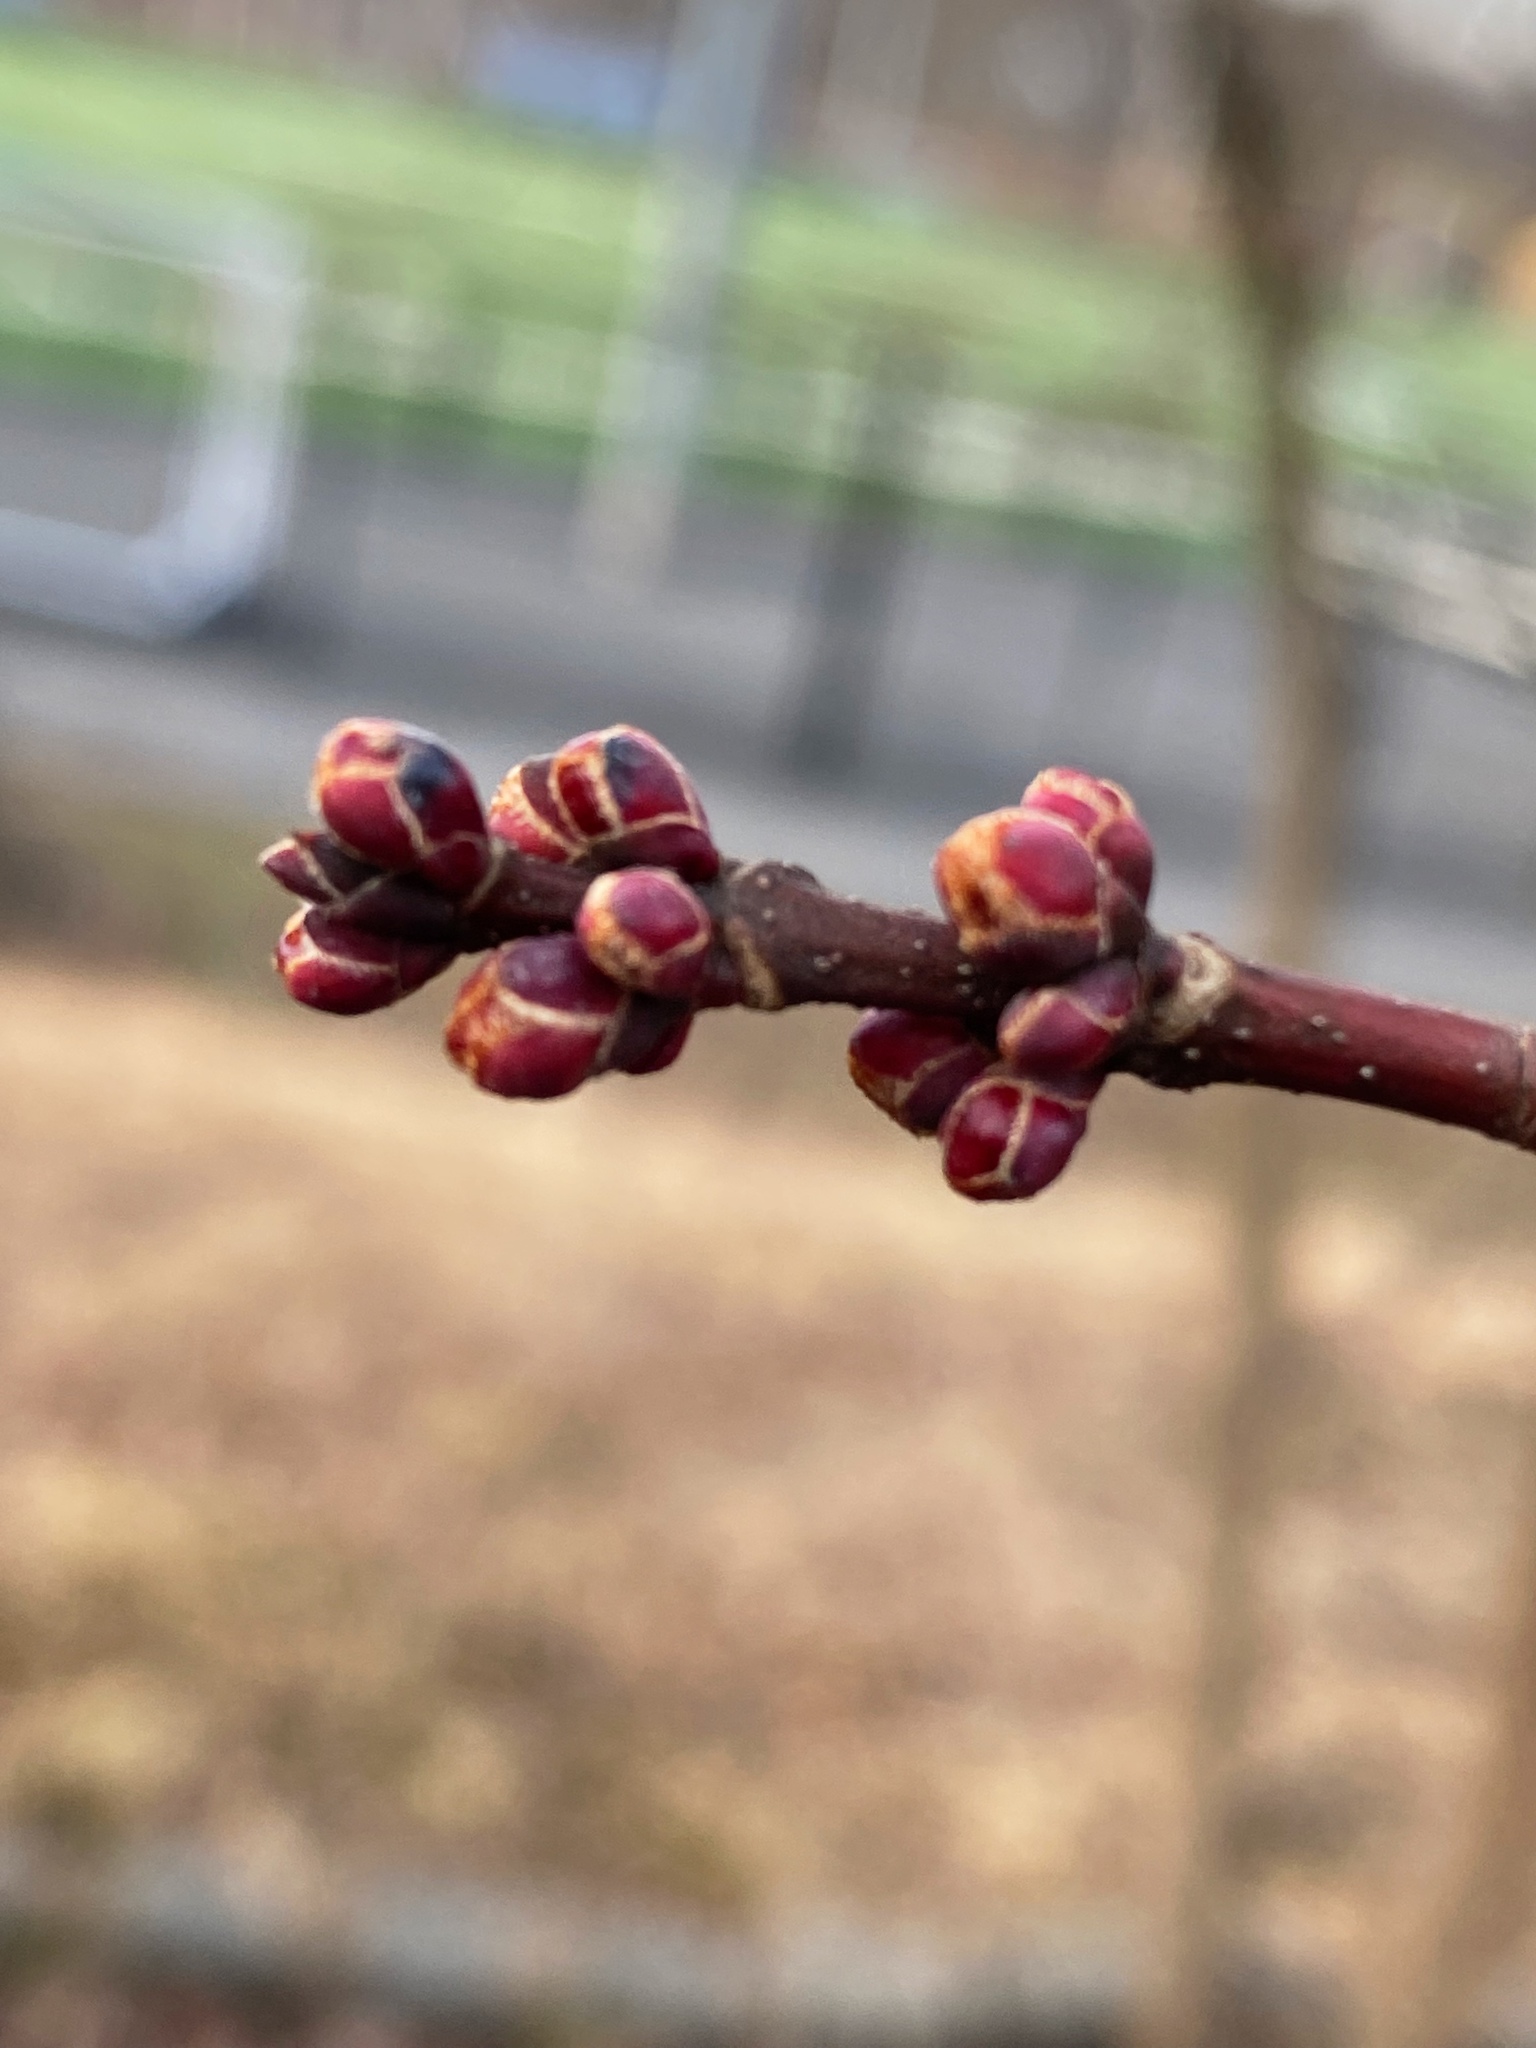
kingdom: Plantae
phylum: Tracheophyta
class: Magnoliopsida
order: Sapindales
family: Sapindaceae
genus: Acer
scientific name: Acer rubrum
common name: Red maple
